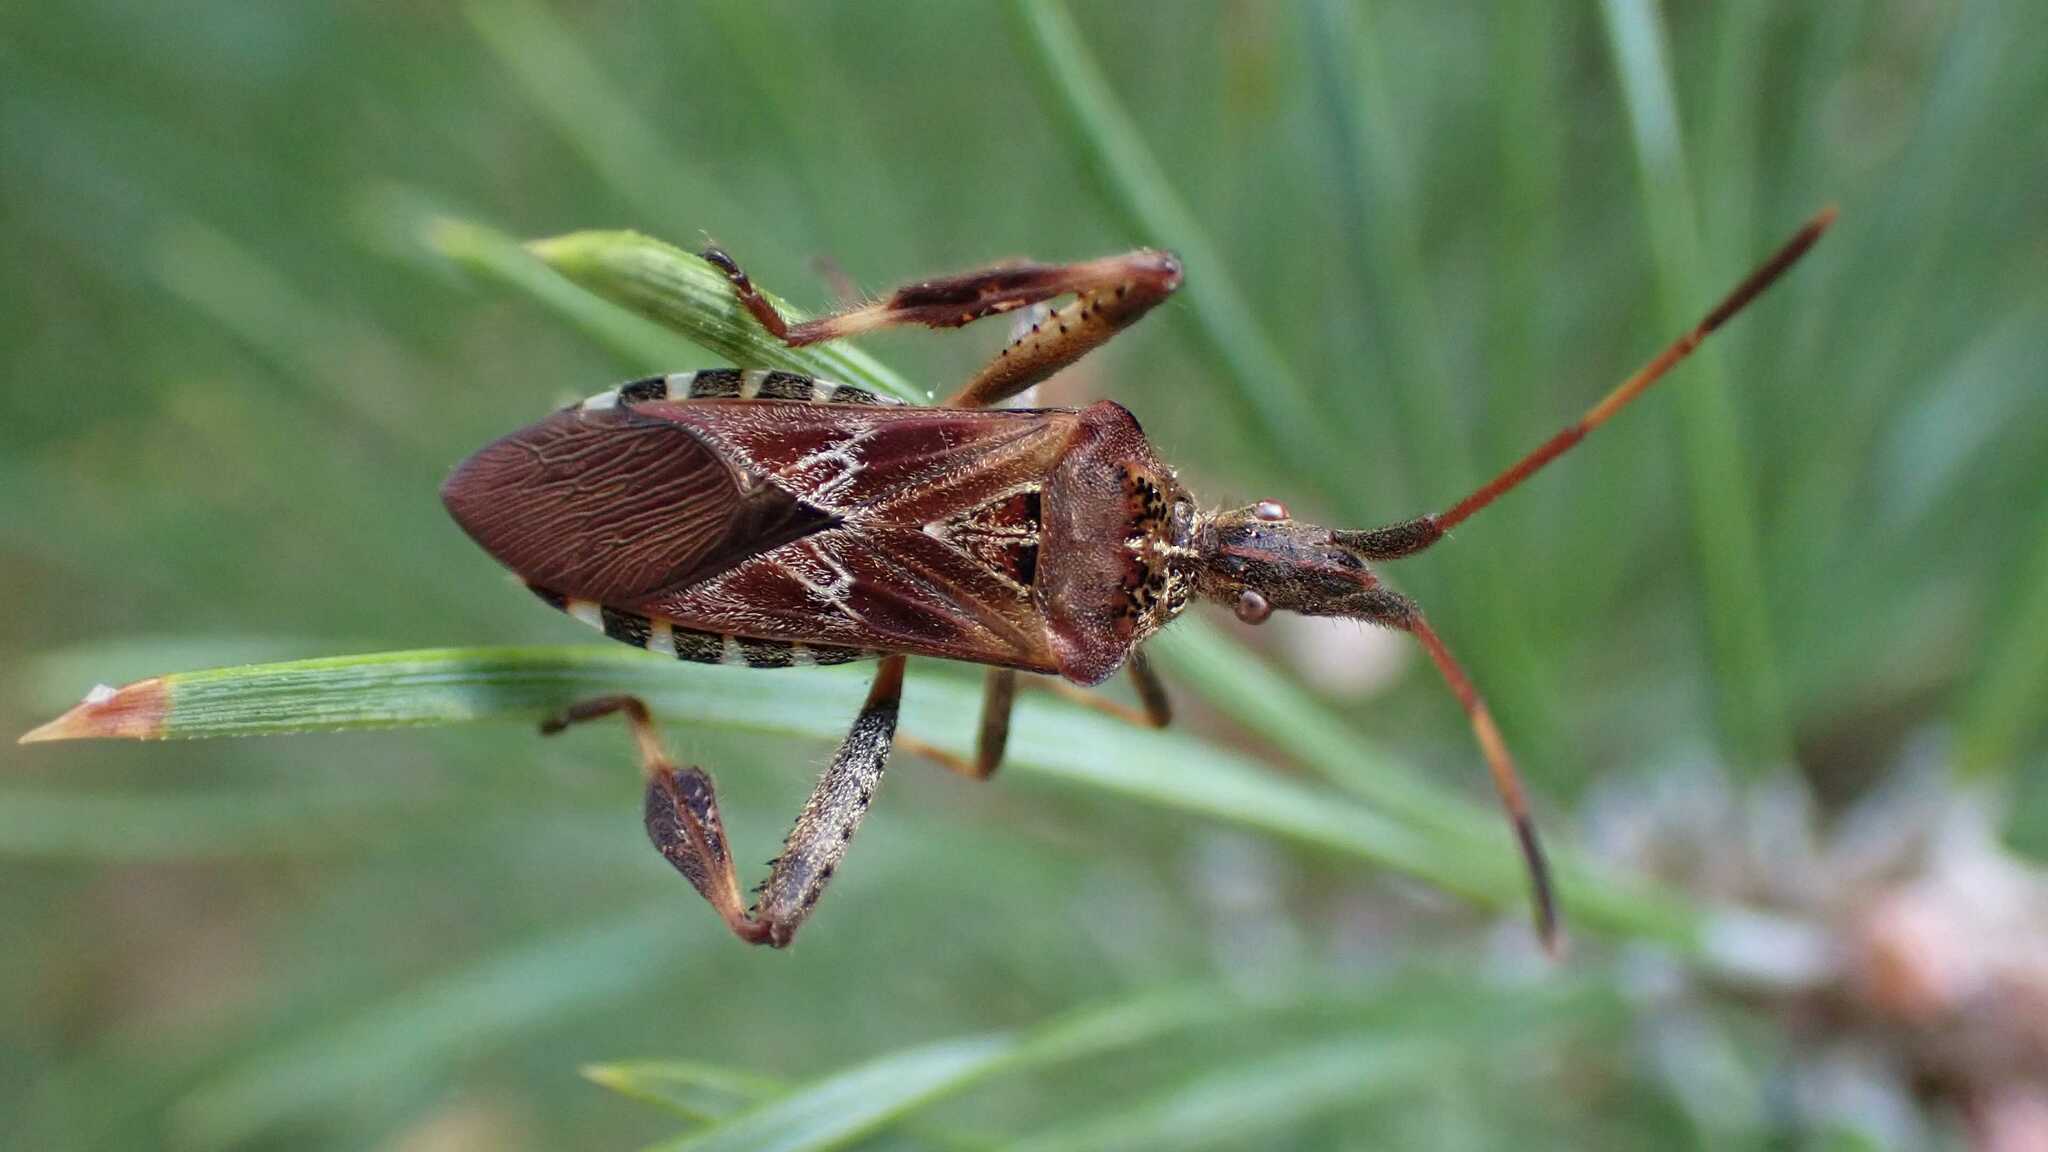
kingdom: Animalia
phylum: Arthropoda
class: Insecta
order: Hemiptera
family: Coreidae
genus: Leptoglossus
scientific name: Leptoglossus occidentalis
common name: Western conifer-seed bug
